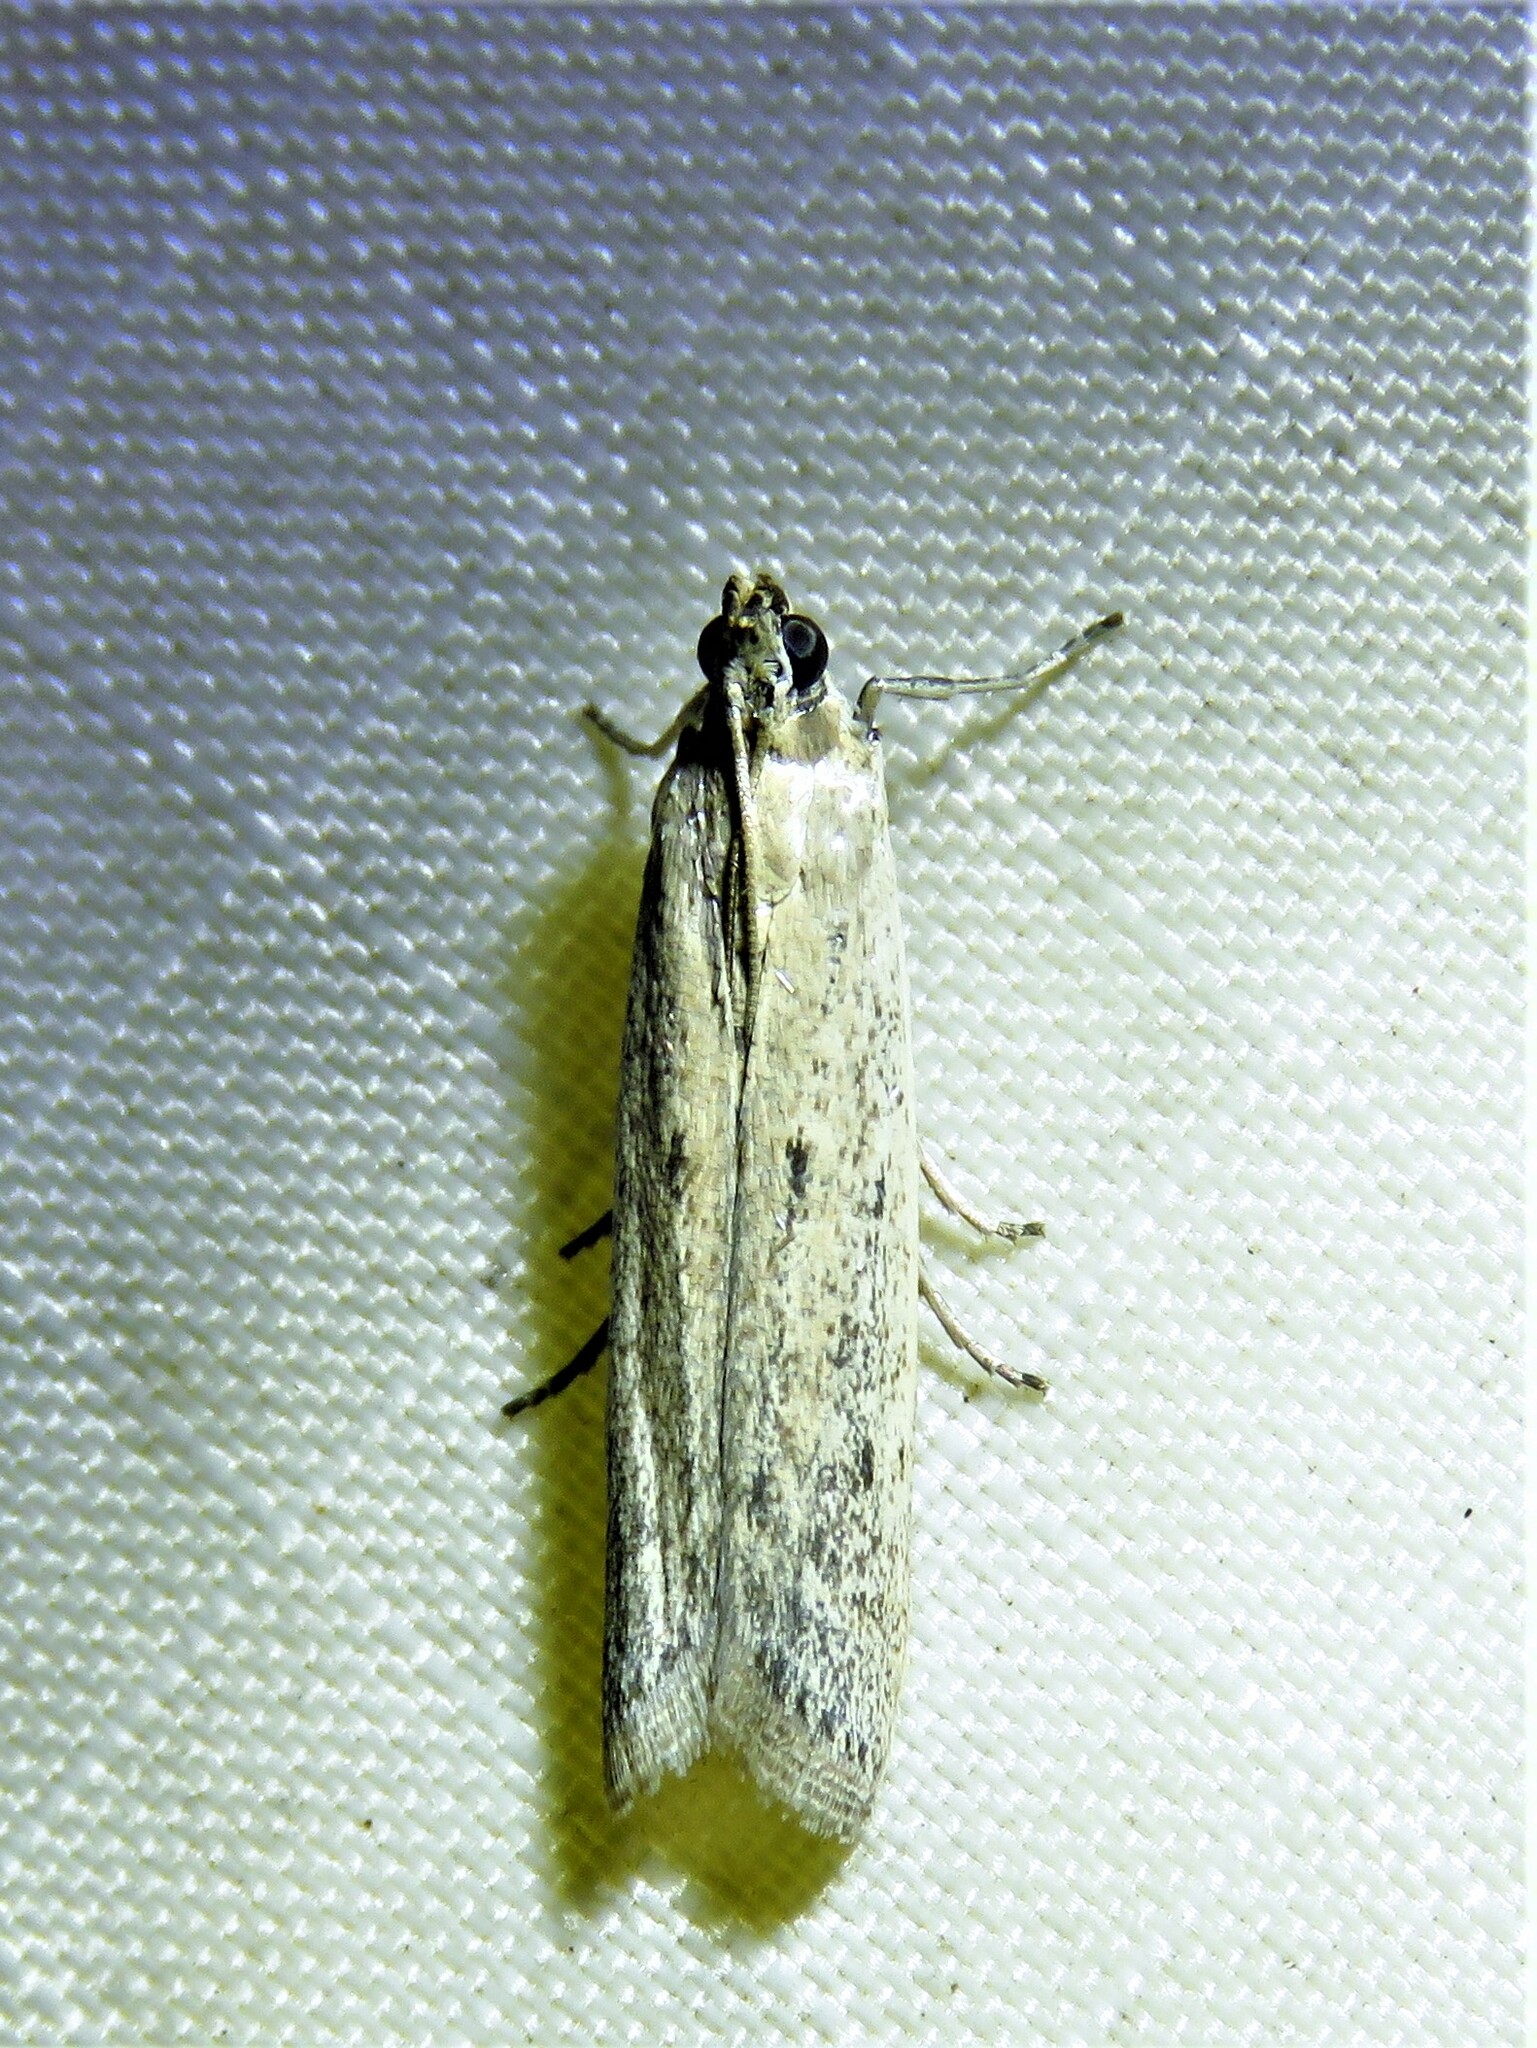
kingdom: Animalia
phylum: Arthropoda
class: Insecta
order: Lepidoptera
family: Pyralidae
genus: Homoeosoma
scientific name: Homoeosoma electella
